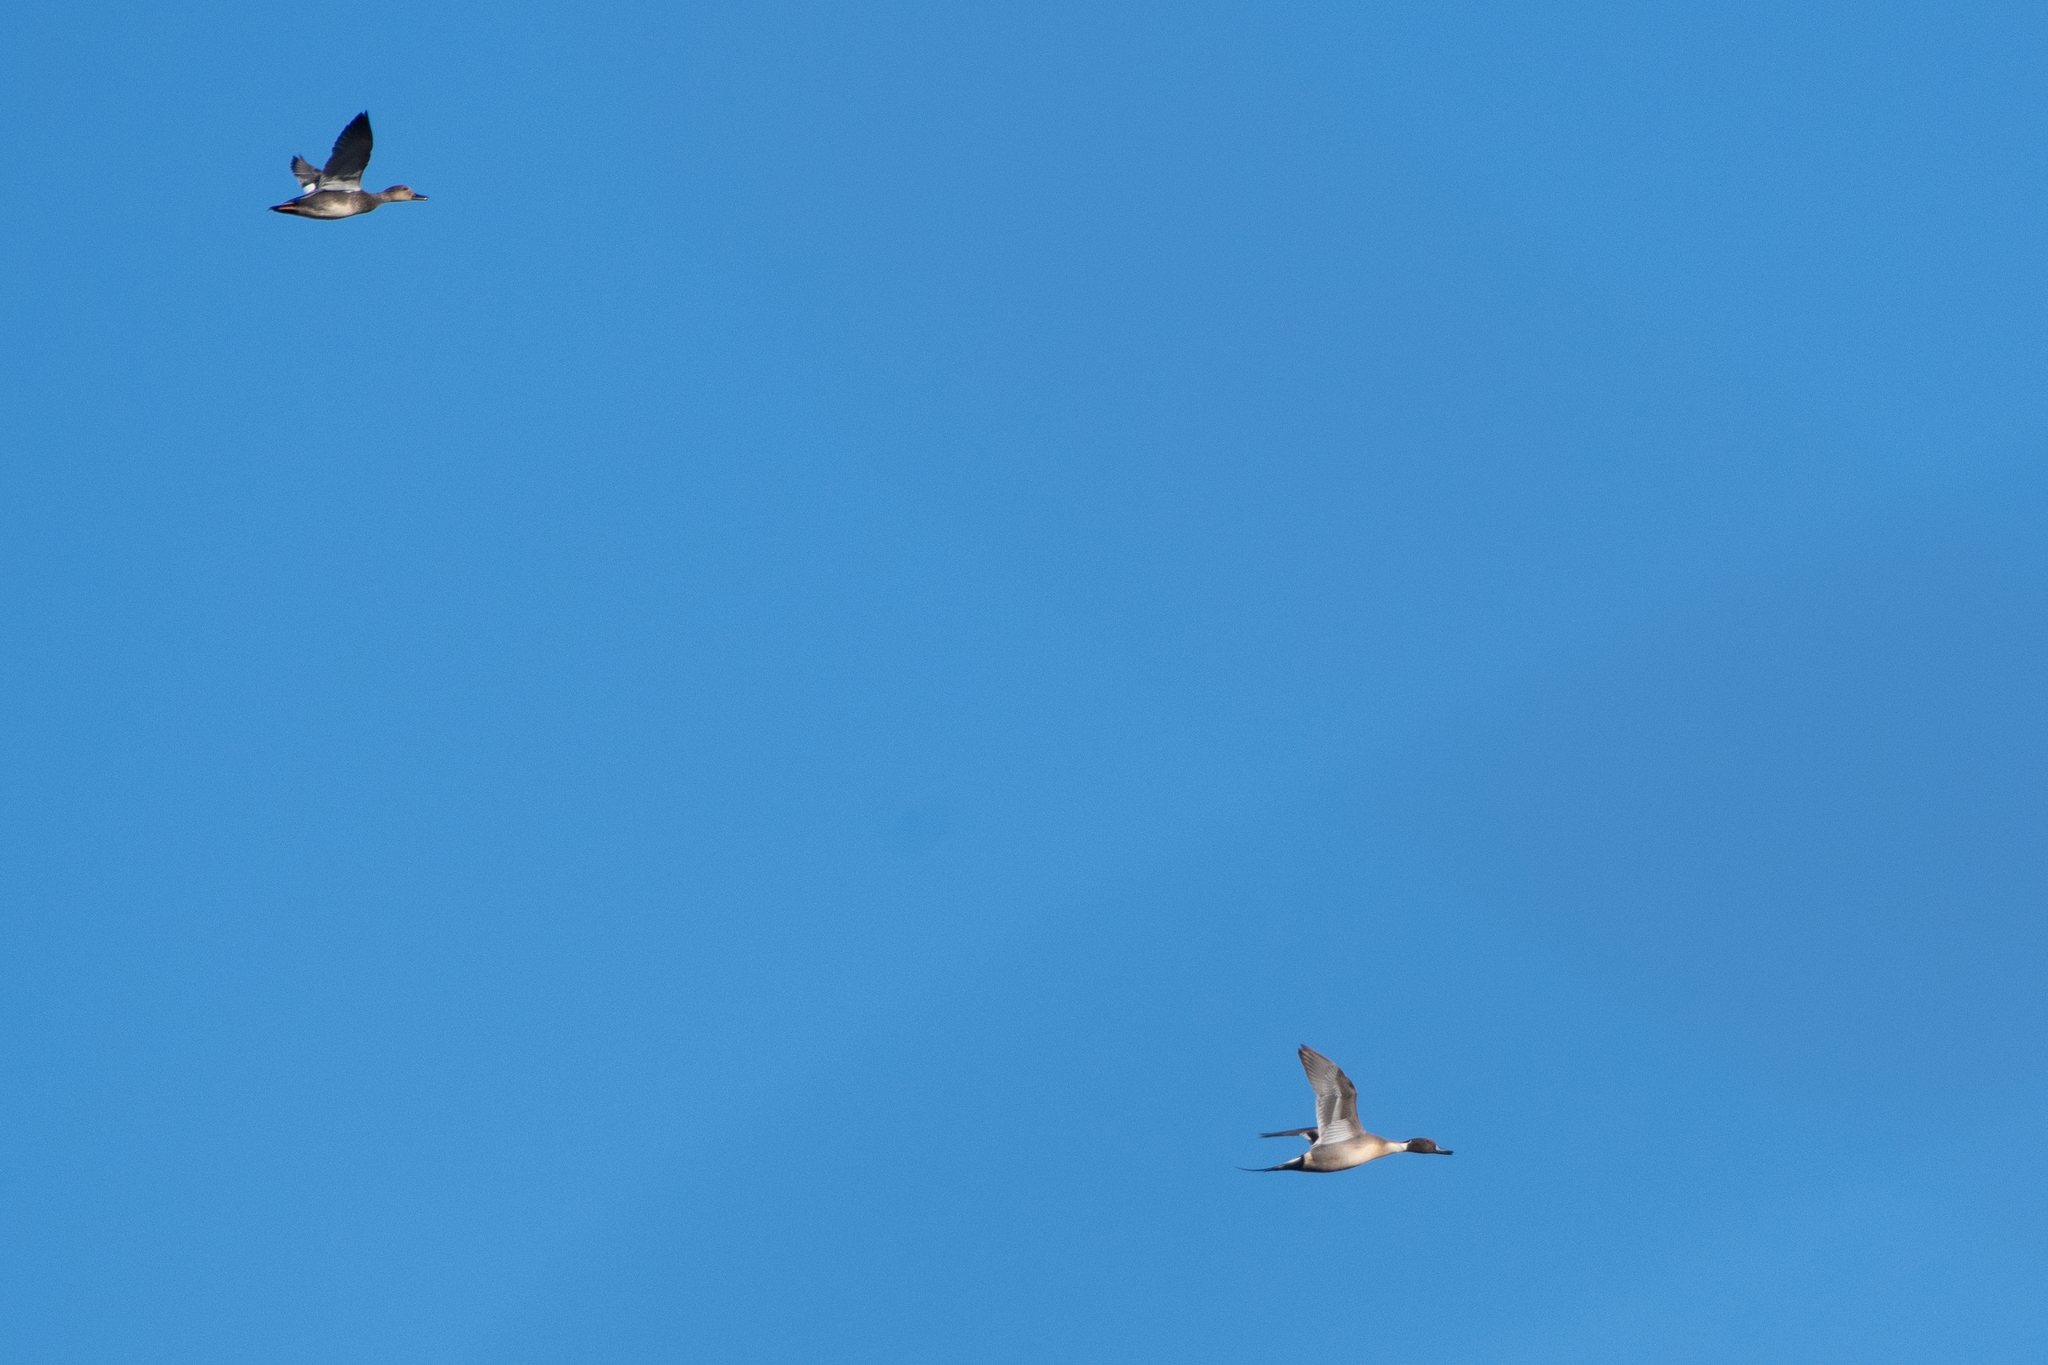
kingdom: Animalia
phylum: Chordata
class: Aves
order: Anseriformes
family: Anatidae
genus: Anas
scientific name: Anas acuta
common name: Northern pintail
